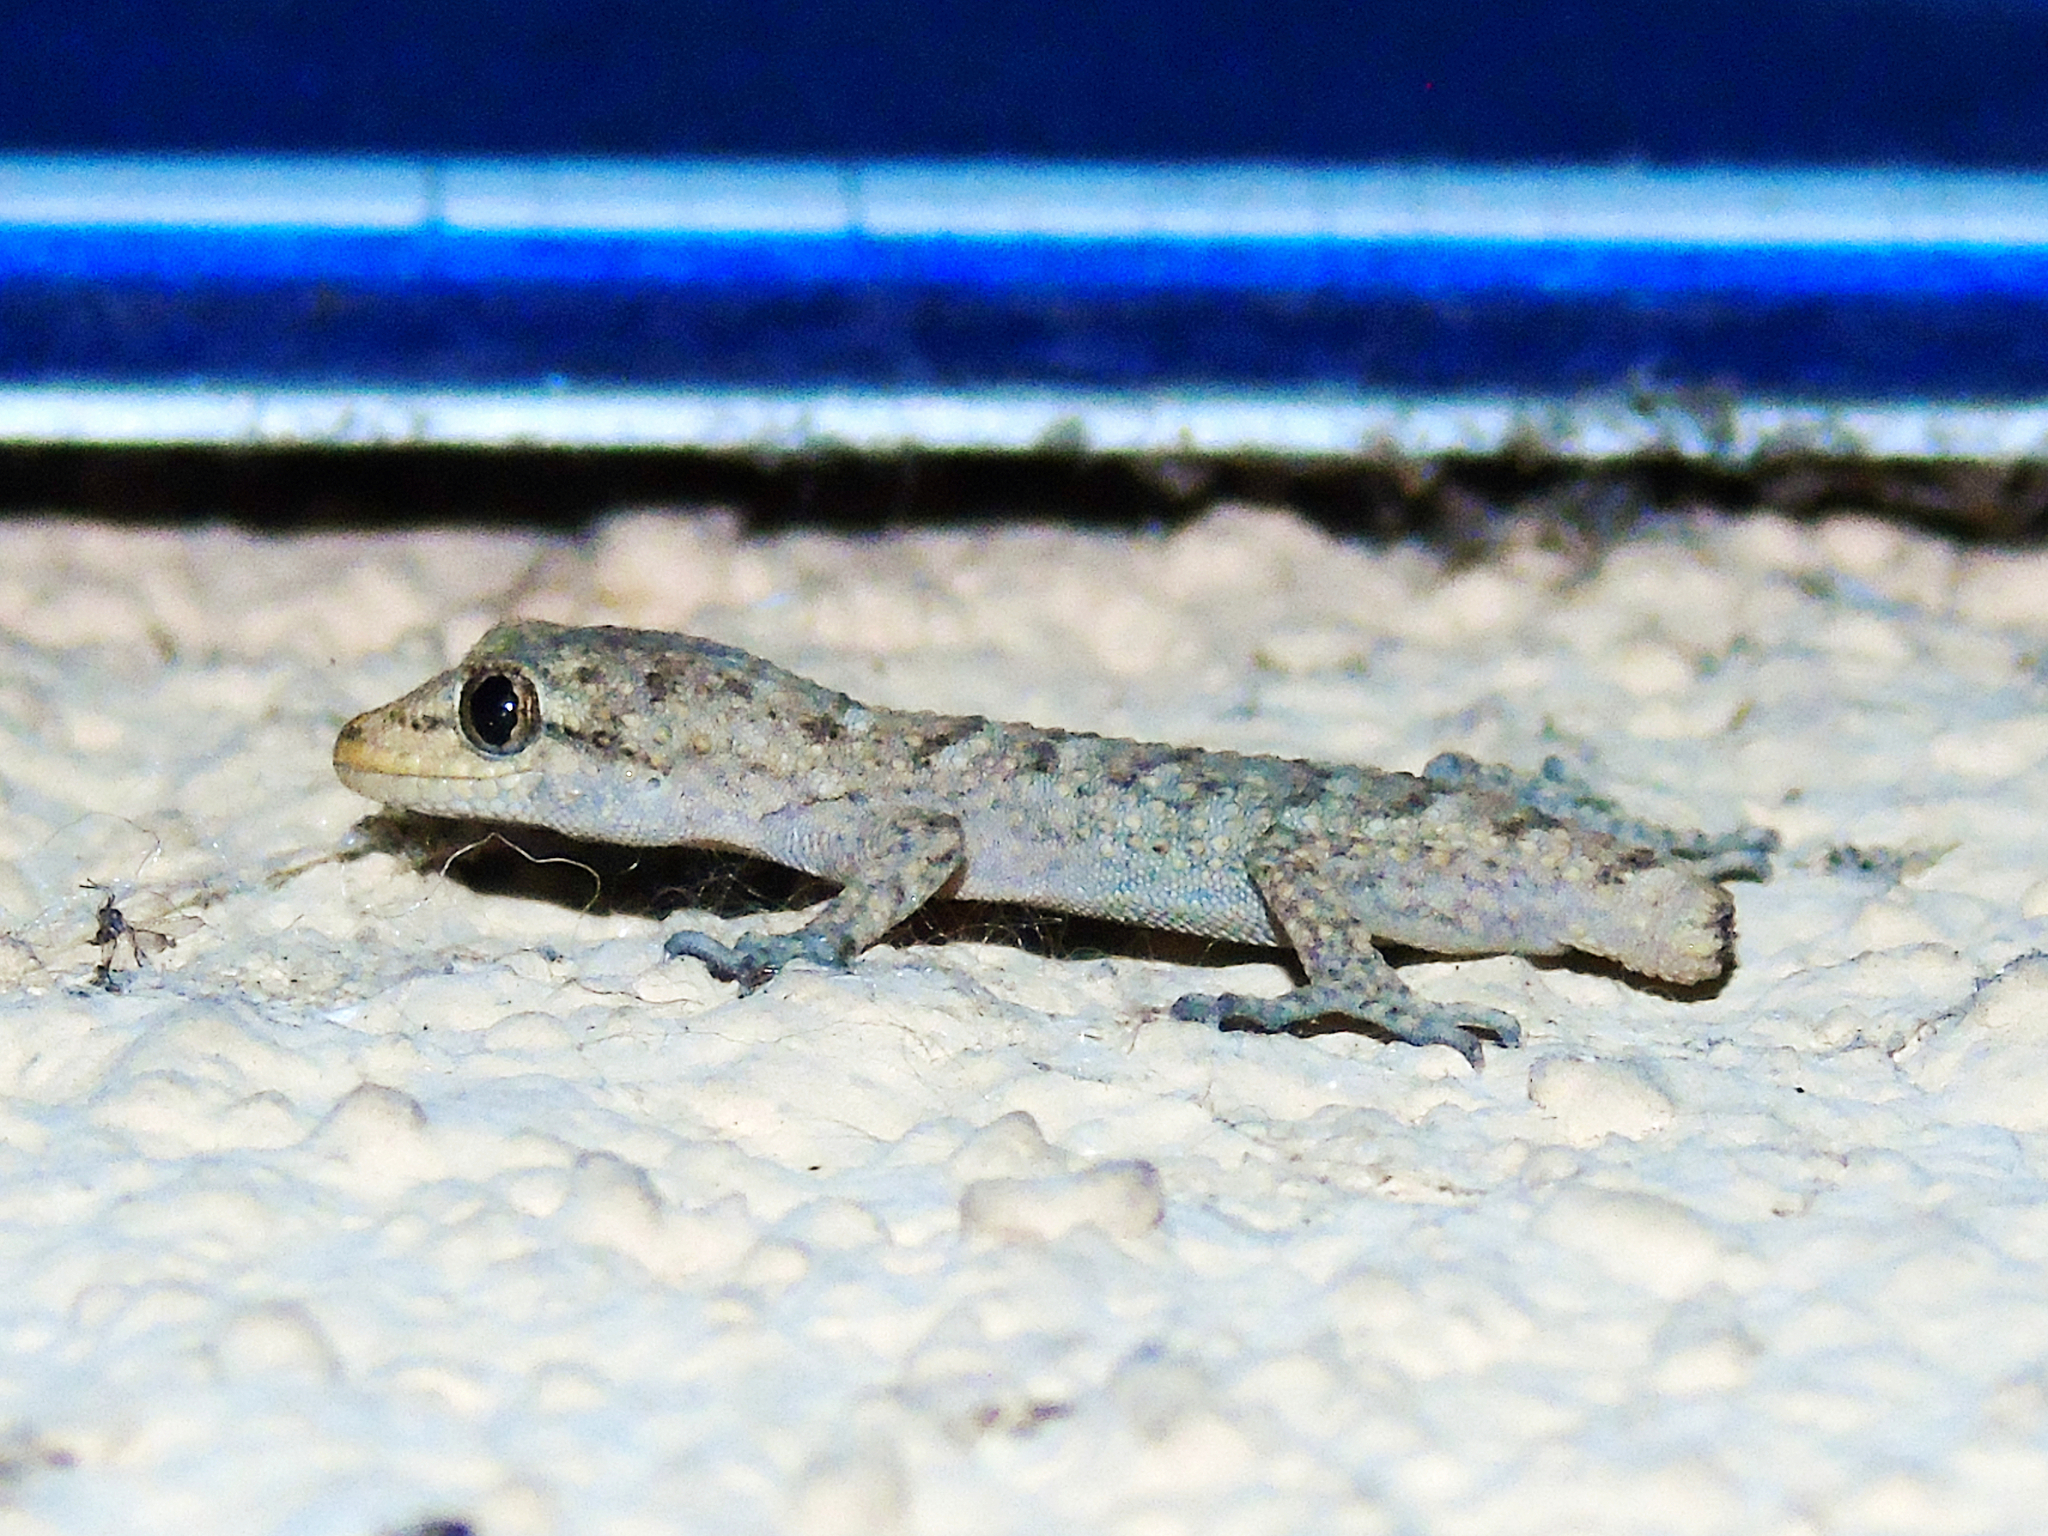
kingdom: Animalia
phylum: Chordata
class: Squamata
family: Gekkonidae
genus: Mediodactylus
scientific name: Mediodactylus kotschyi
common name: Kotschy's gecko
